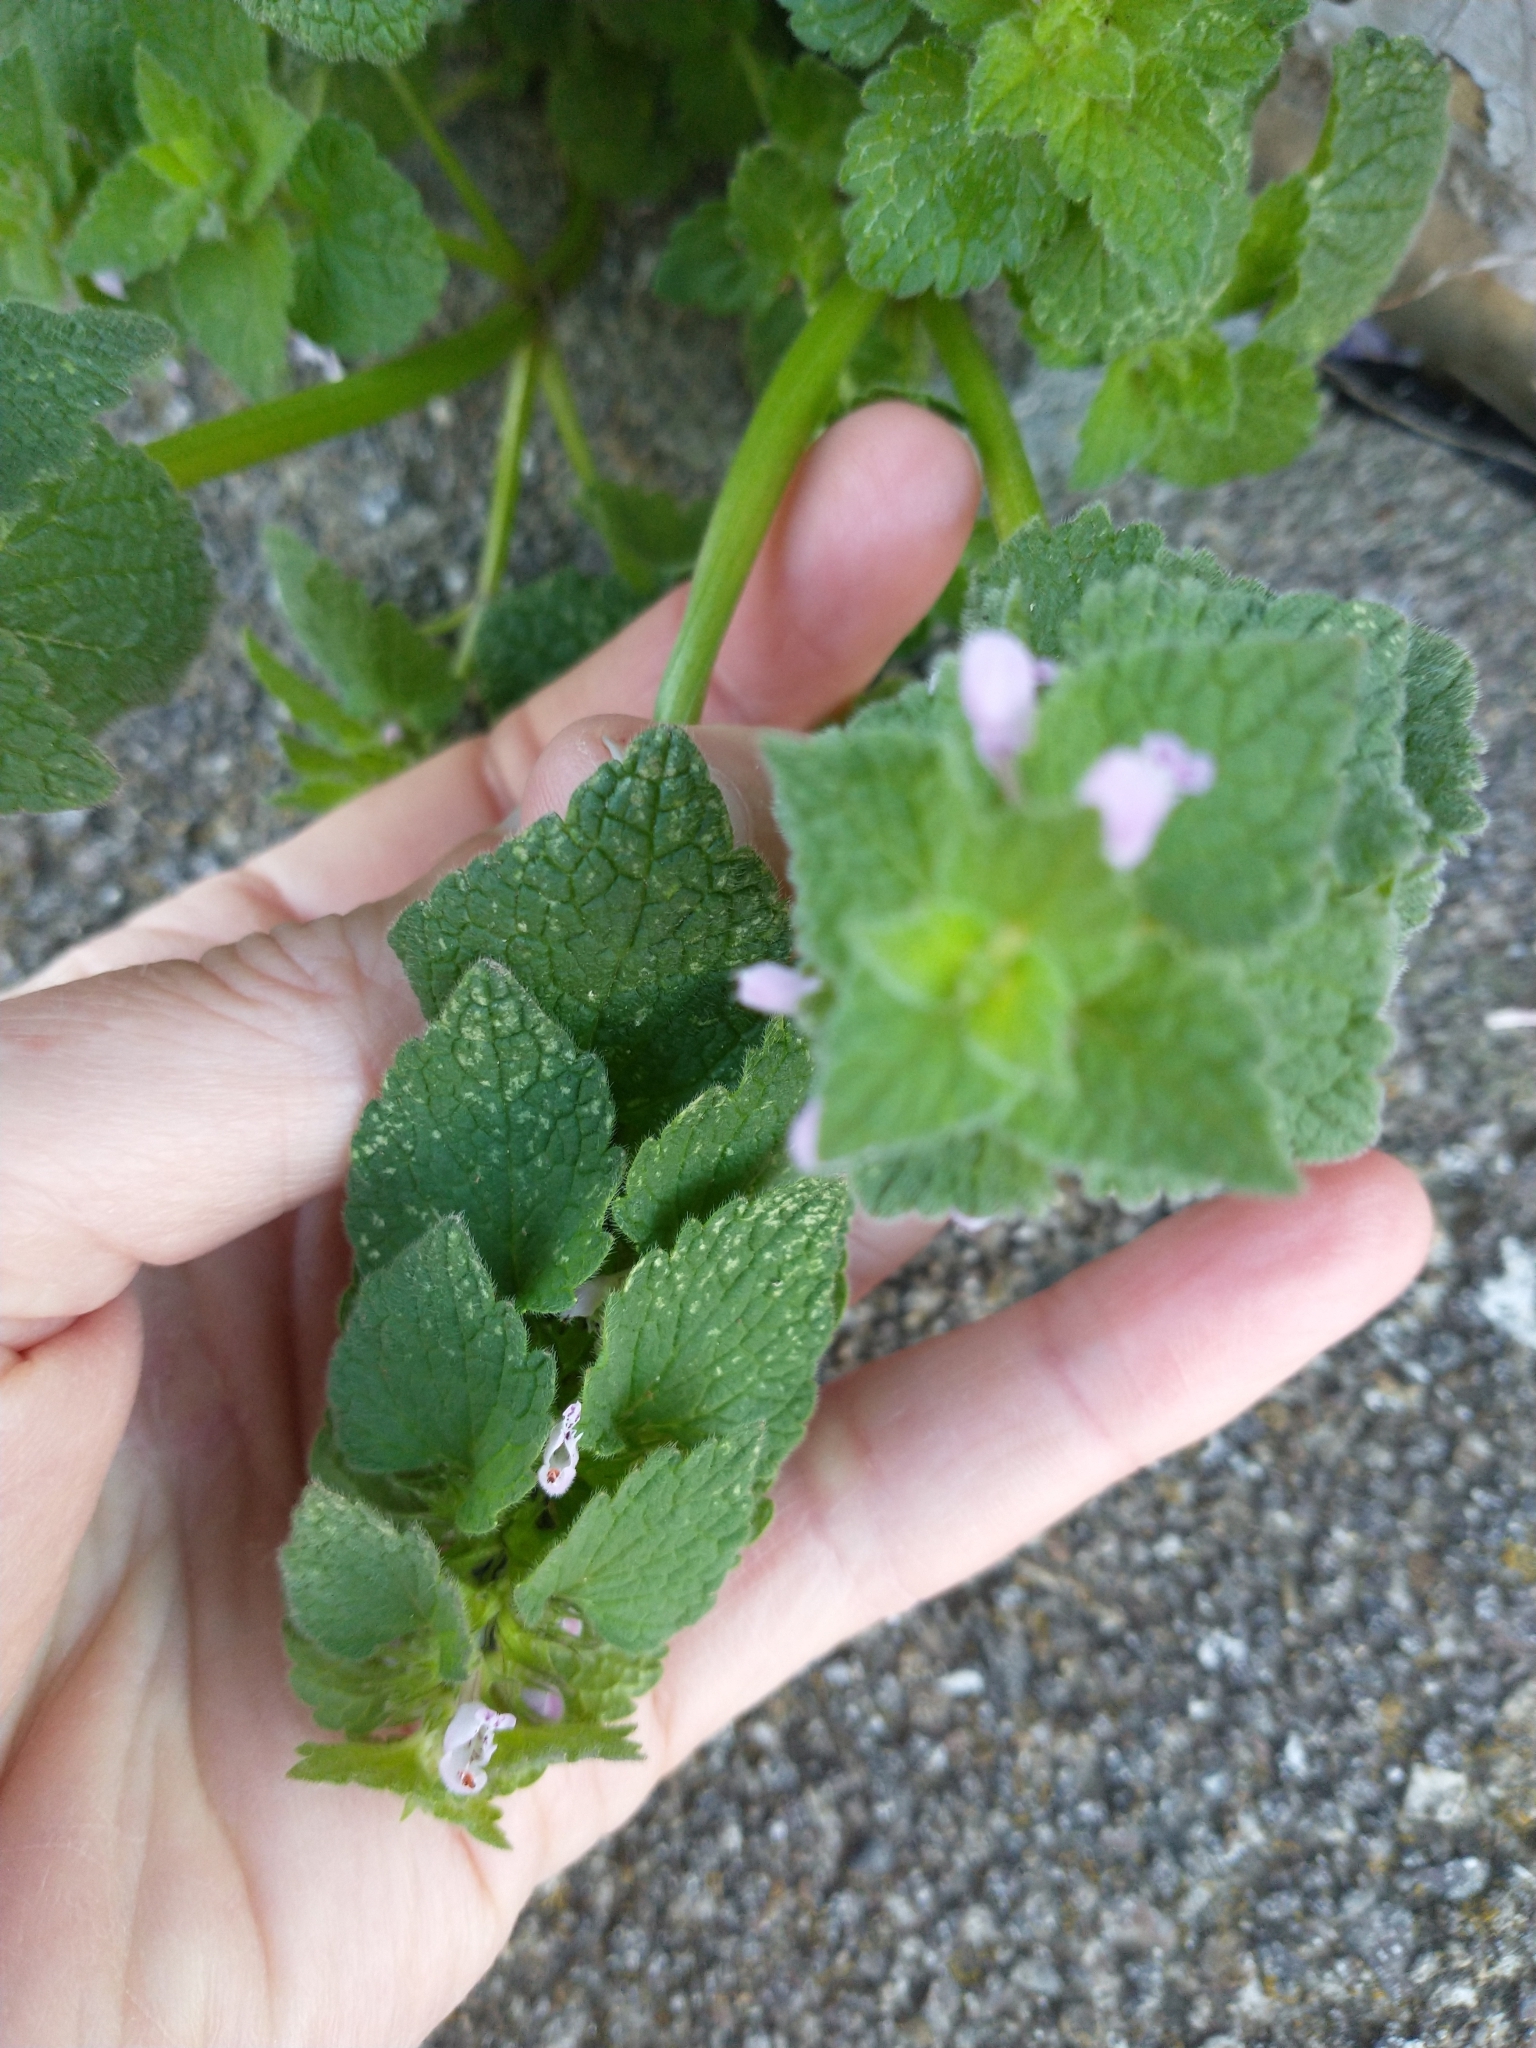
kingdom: Plantae
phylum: Tracheophyta
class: Magnoliopsida
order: Lamiales
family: Lamiaceae
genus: Lamium
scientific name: Lamium purpureum
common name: Red dead-nettle
